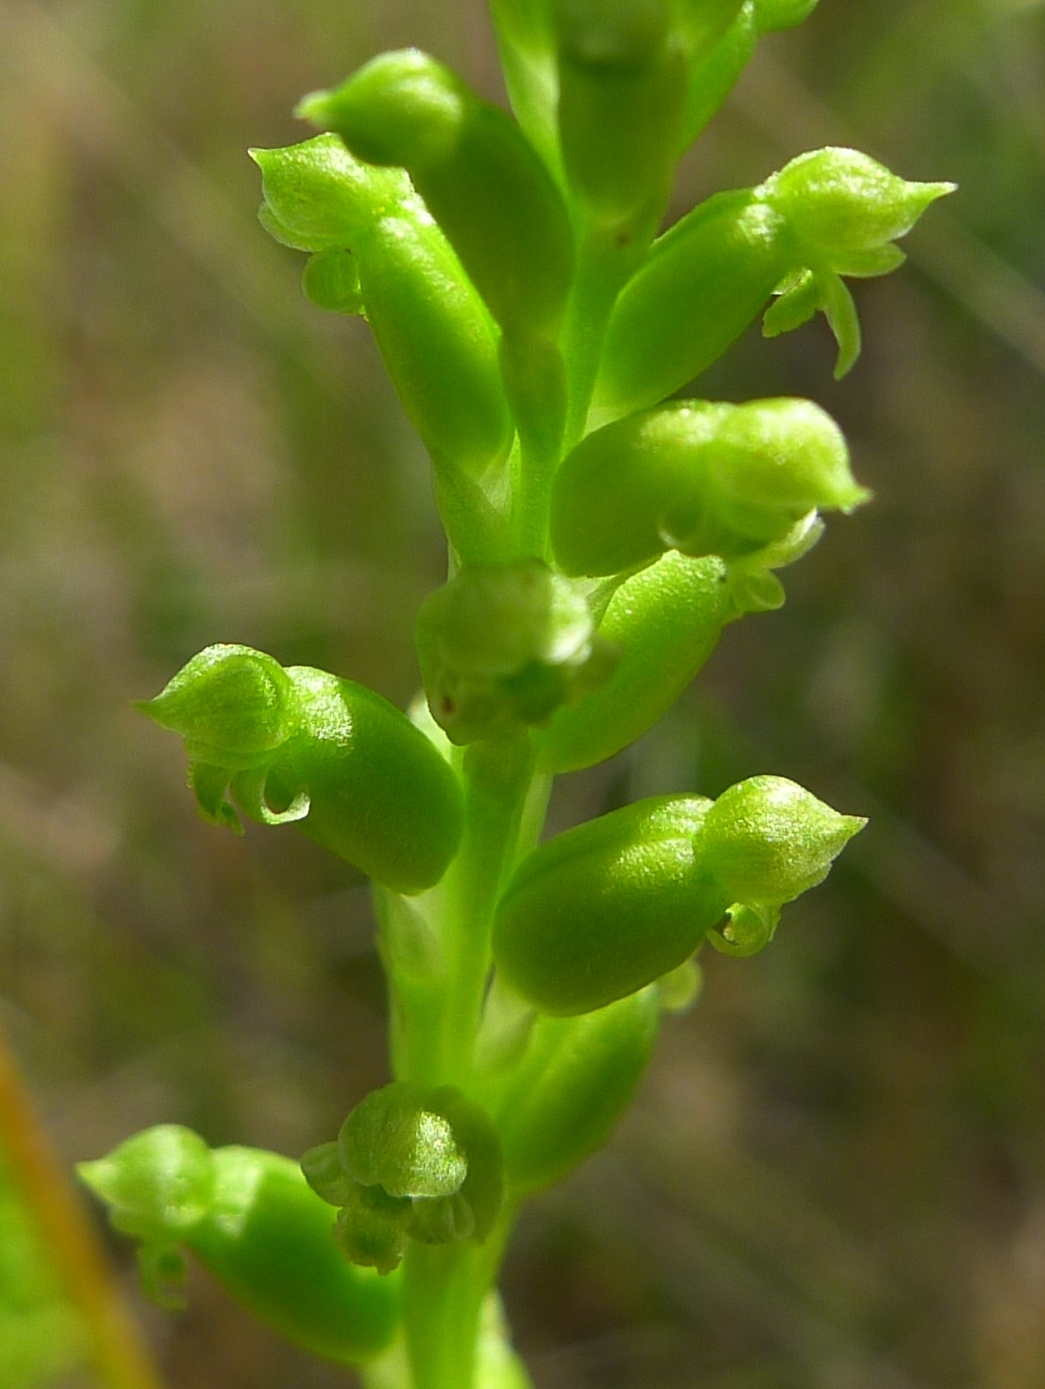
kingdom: Plantae
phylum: Tracheophyta
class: Liliopsida
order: Asparagales
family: Orchidaceae
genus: Microtis
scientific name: Microtis unifolia
